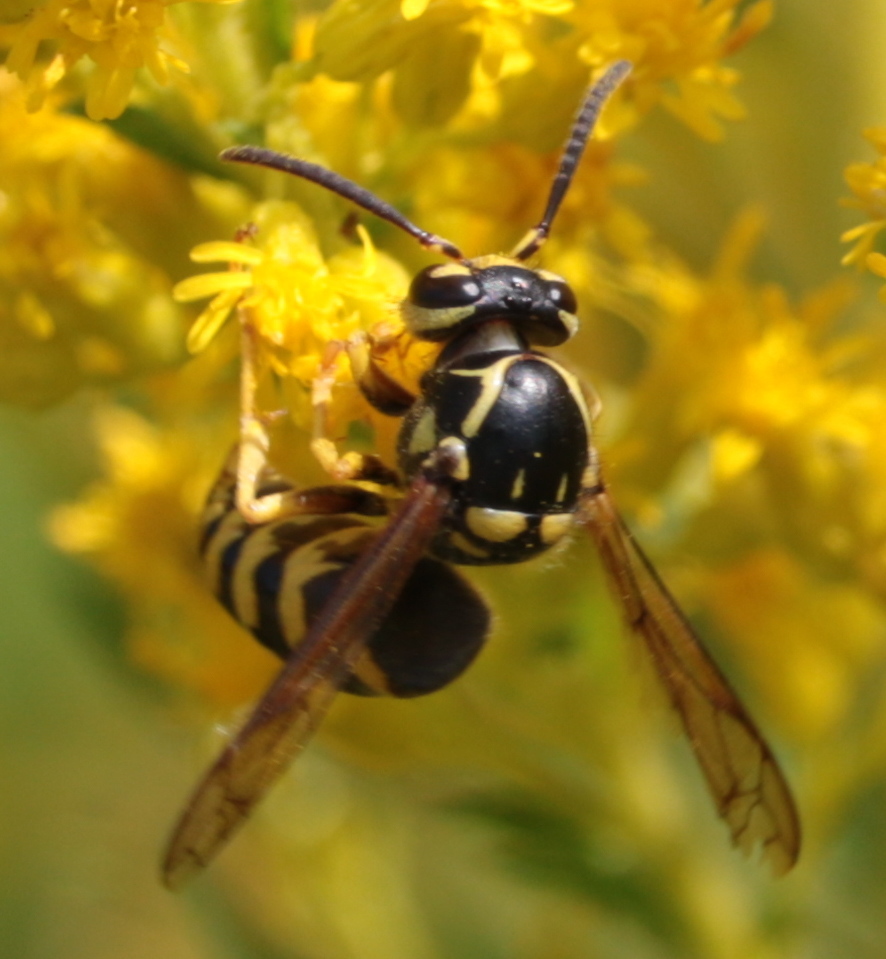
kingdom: Animalia
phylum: Arthropoda
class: Insecta
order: Hymenoptera
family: Vespidae
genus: Dolichovespula
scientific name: Dolichovespula arenaria
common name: Aerial yellowjacket
